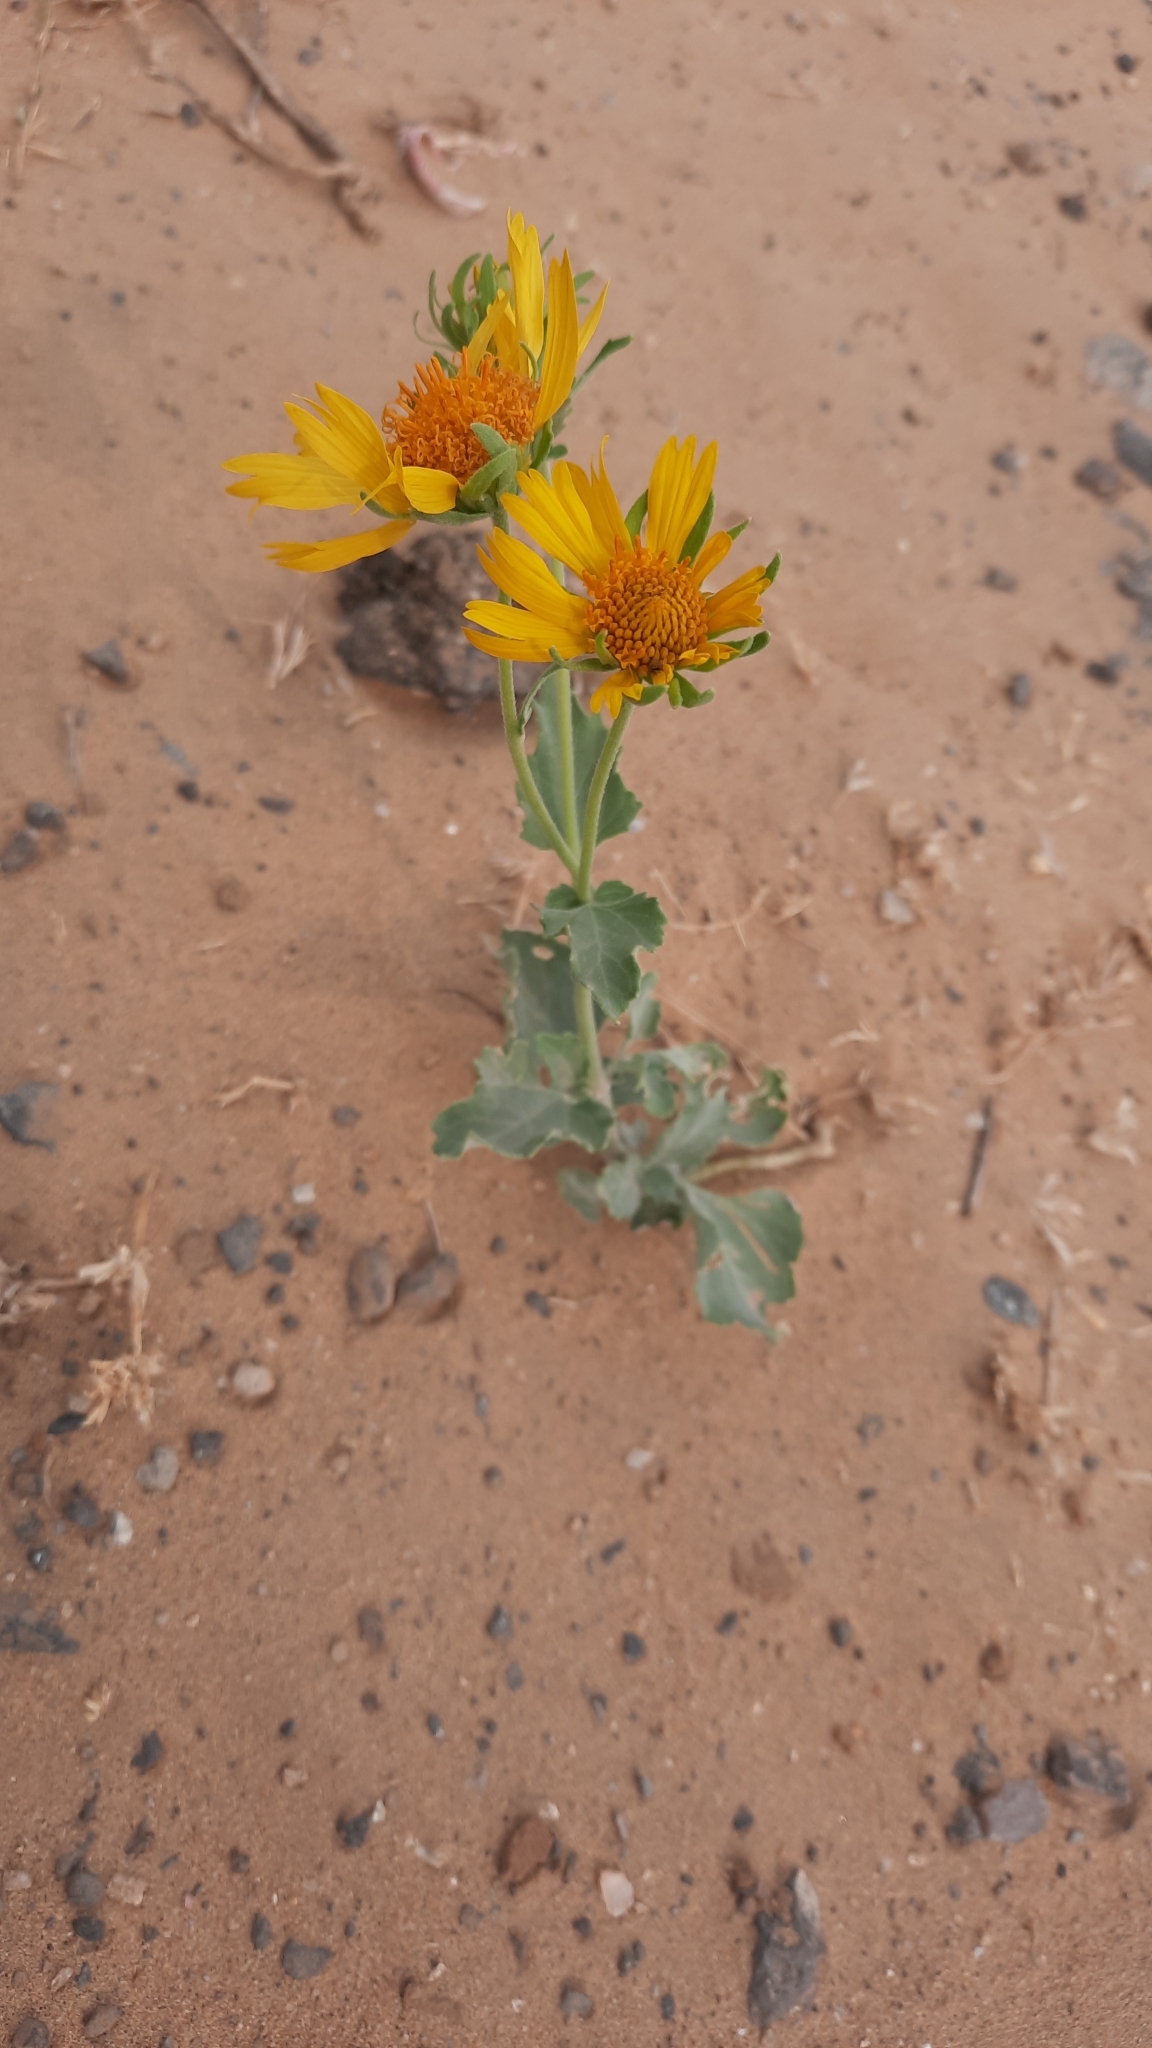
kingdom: Plantae
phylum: Tracheophyta
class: Magnoliopsida
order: Asterales
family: Asteraceae
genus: Verbesina
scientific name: Verbesina encelioides
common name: Golden crownbeard
